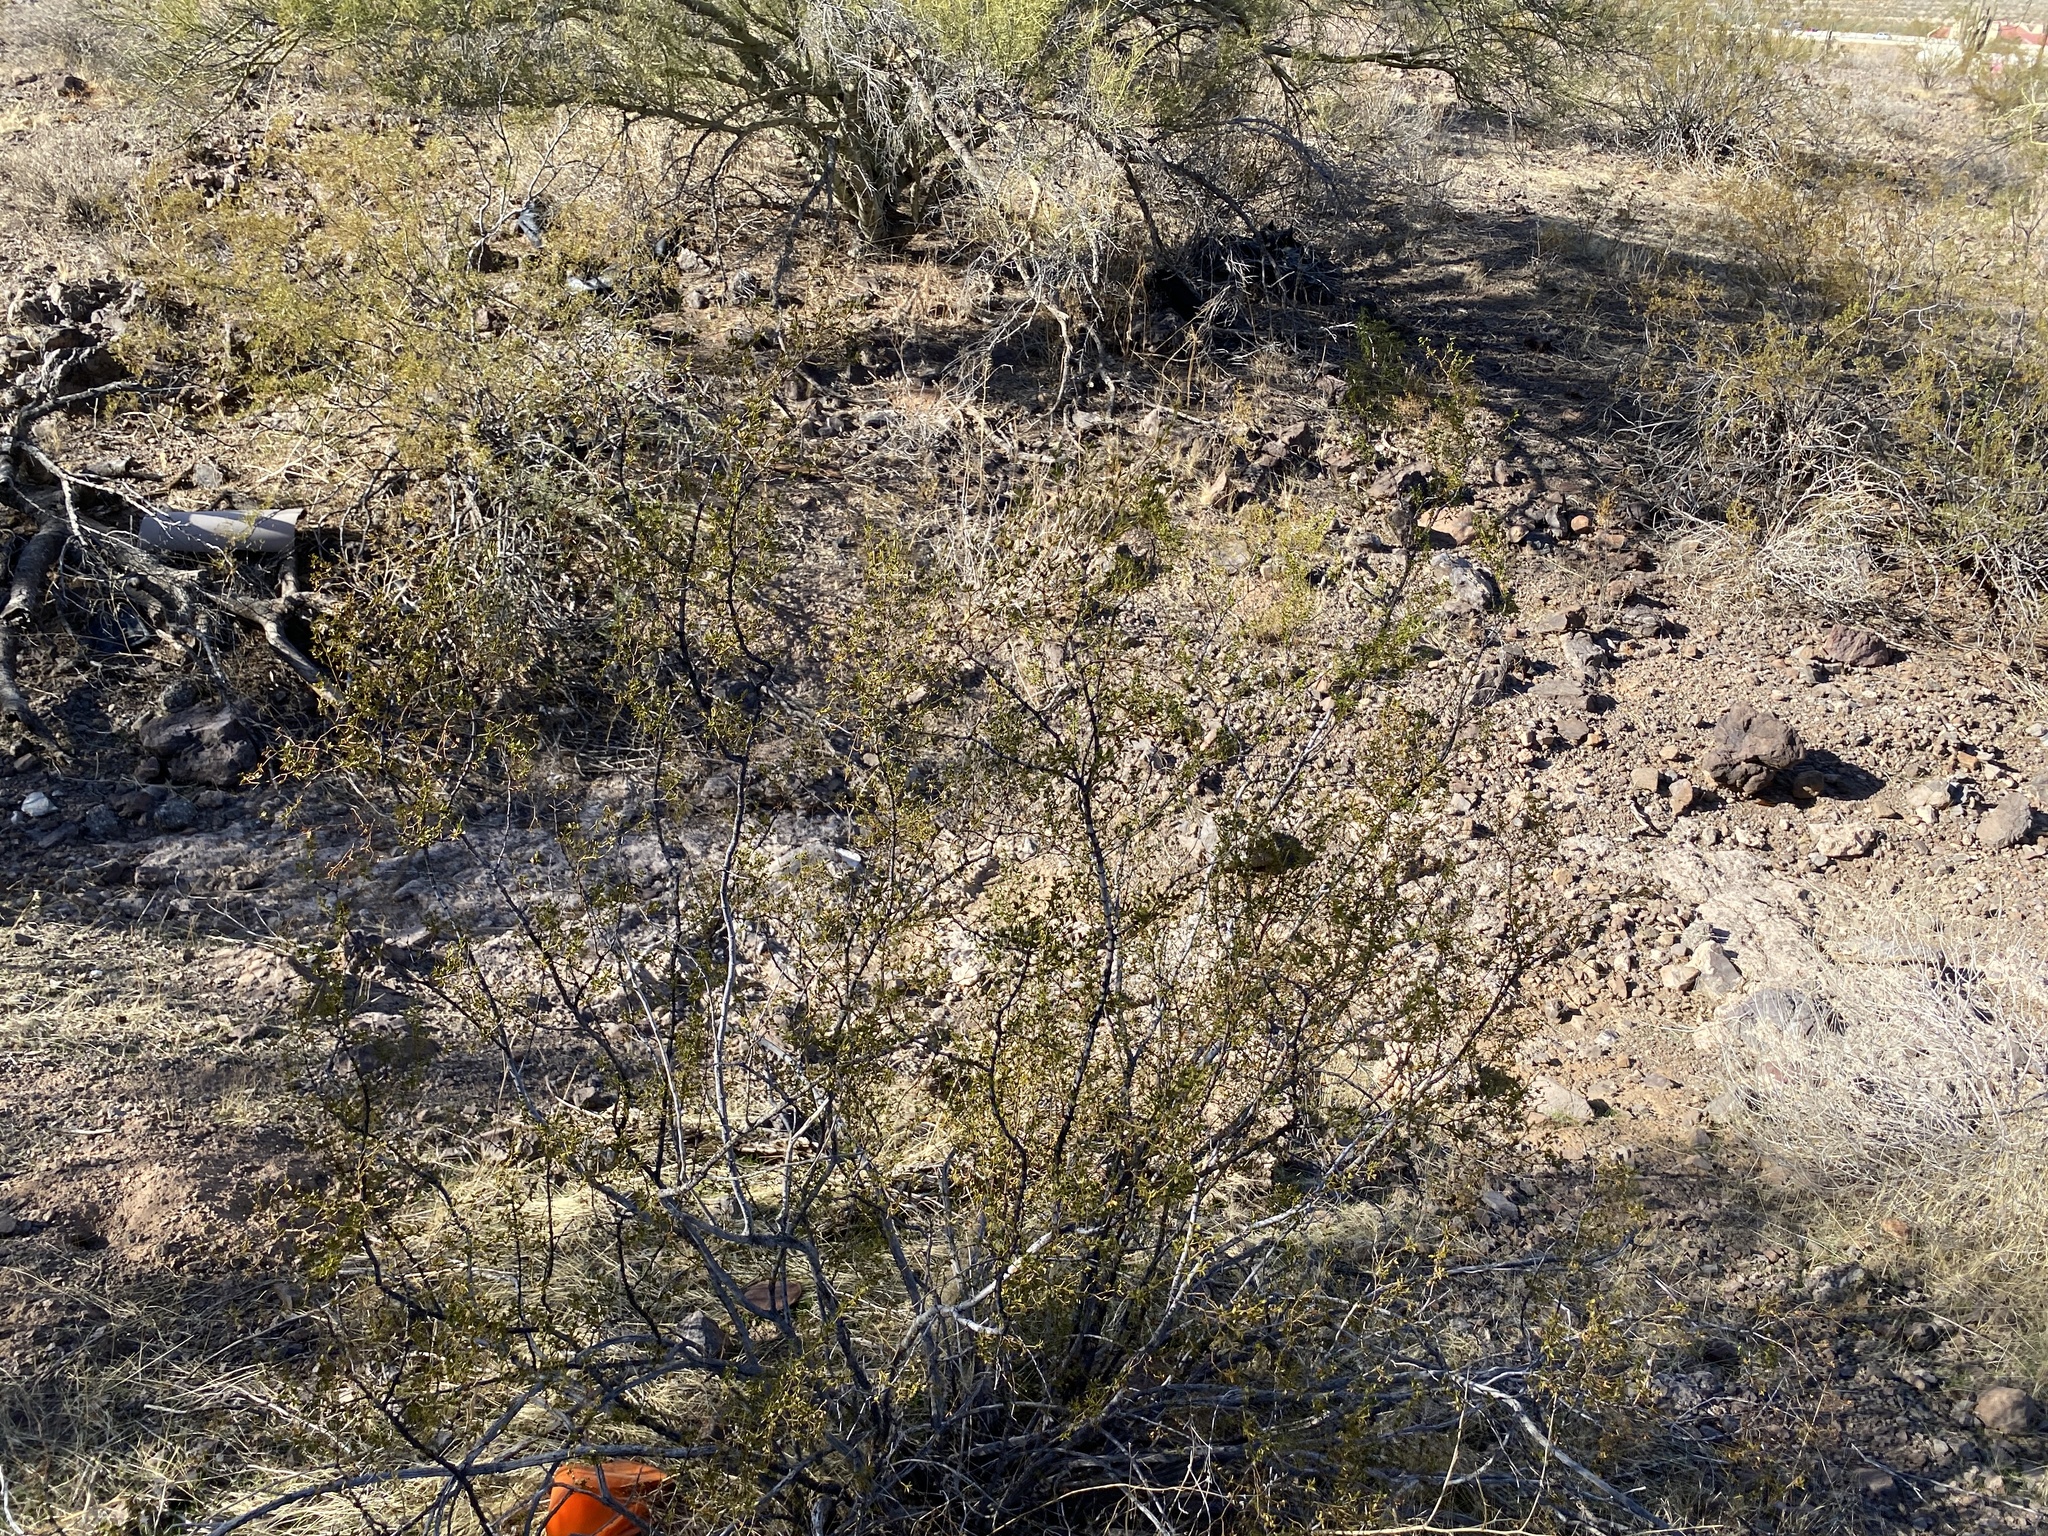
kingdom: Plantae
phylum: Tracheophyta
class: Magnoliopsida
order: Zygophyllales
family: Zygophyllaceae
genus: Larrea
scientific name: Larrea tridentata
